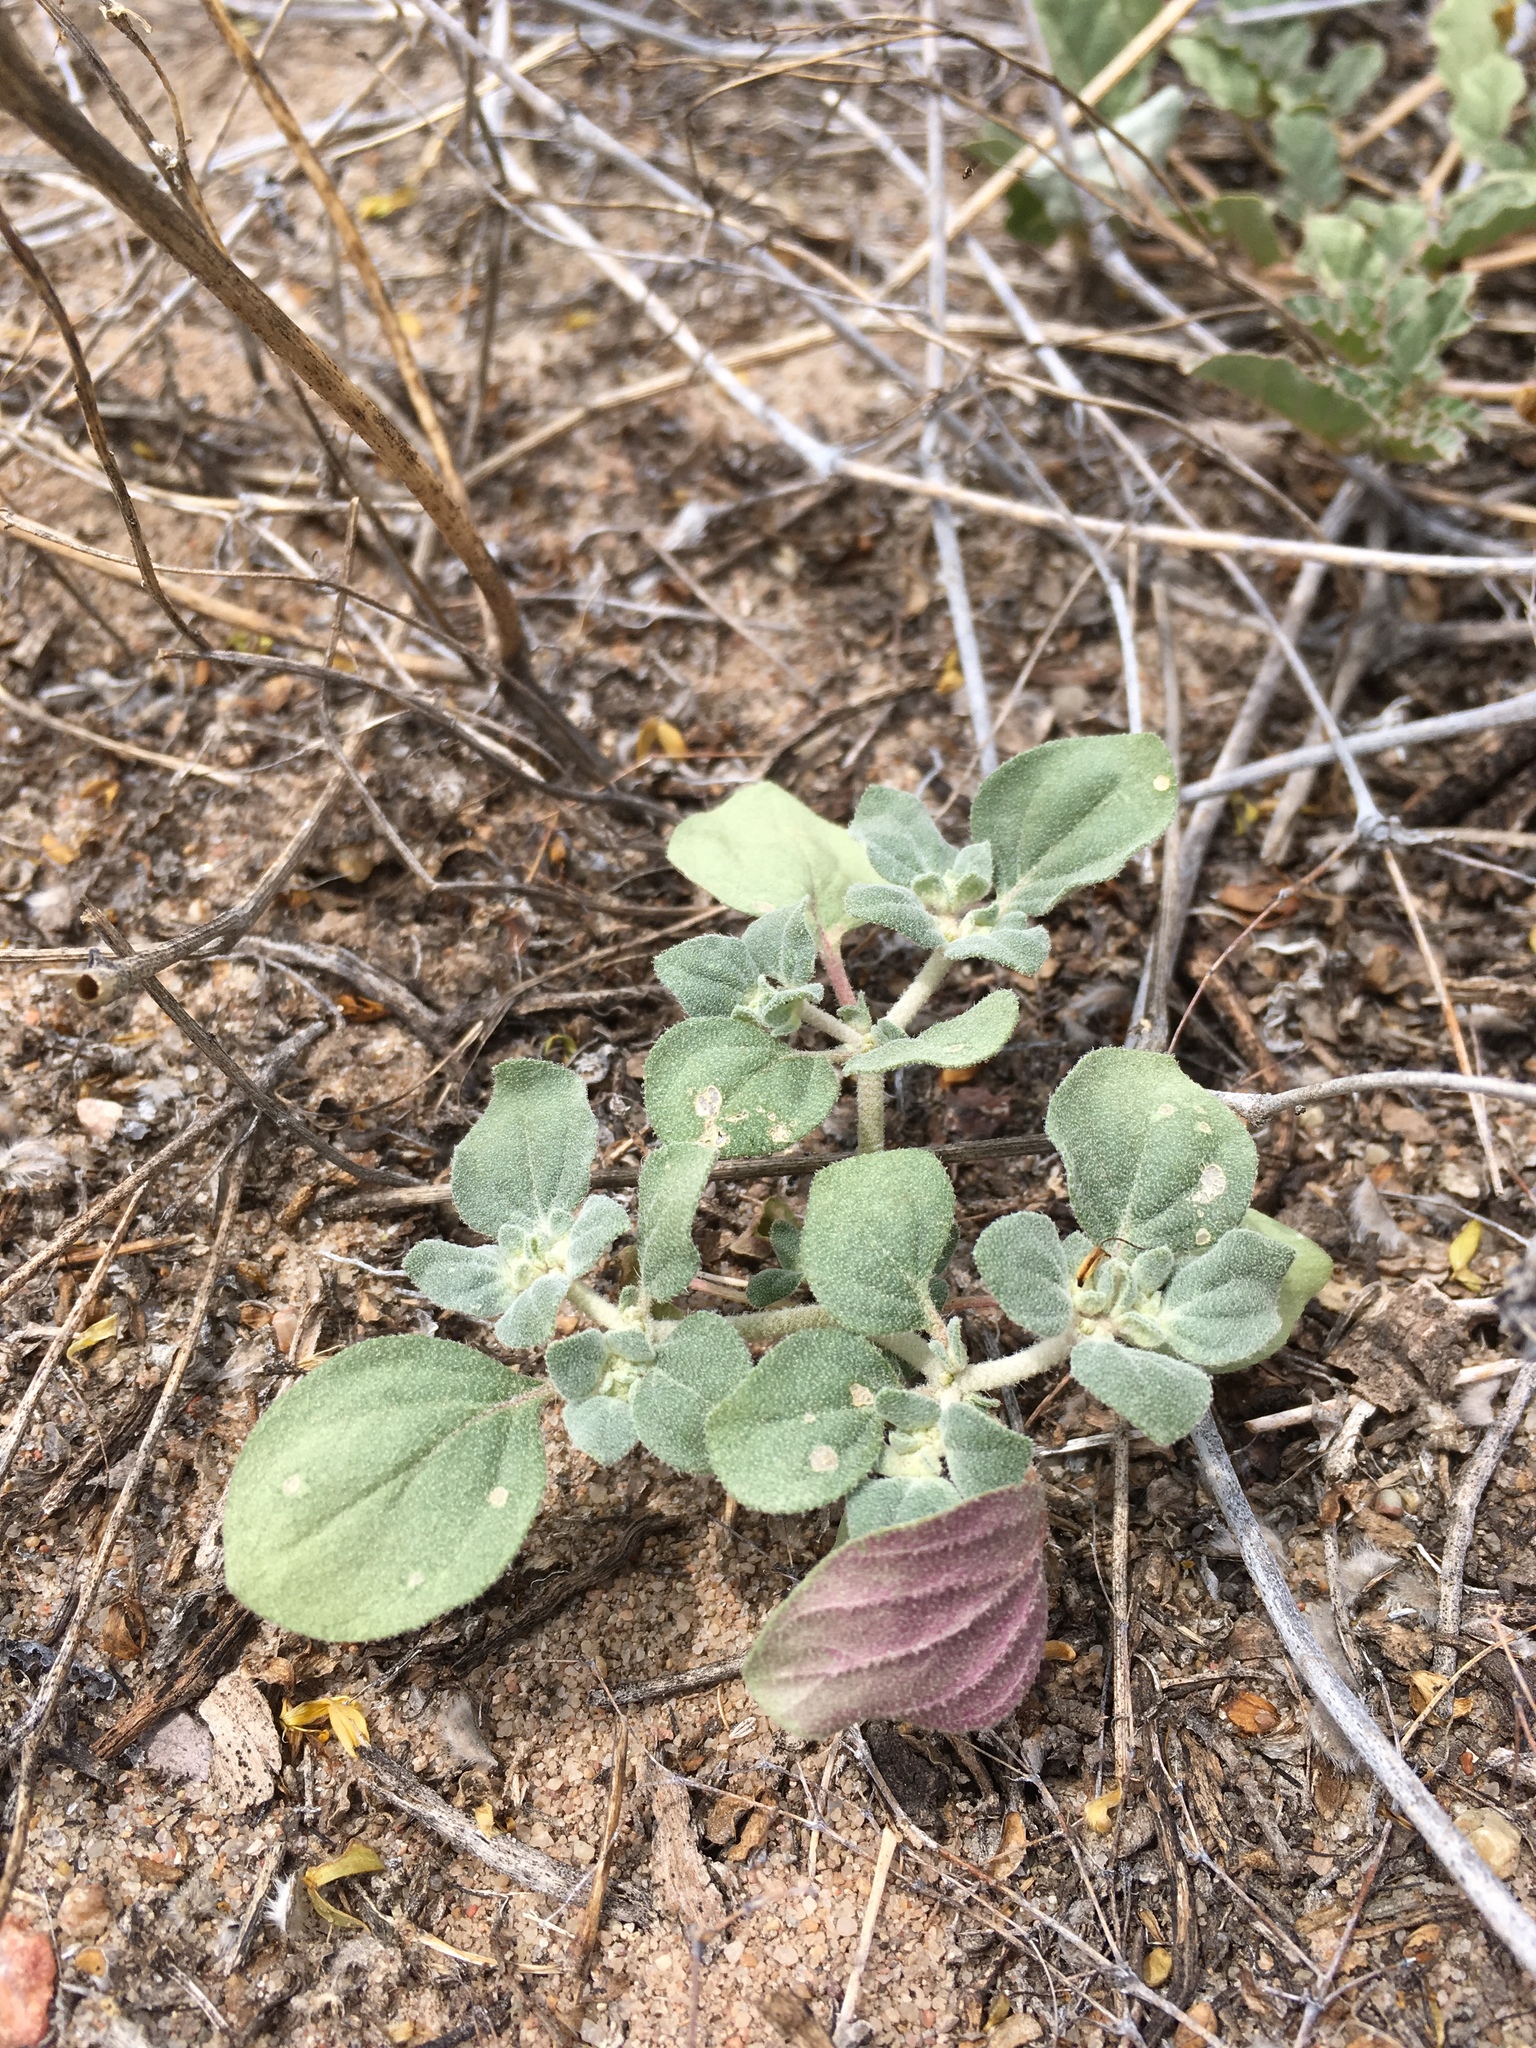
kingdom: Plantae
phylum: Tracheophyta
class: Magnoliopsida
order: Caryophyllales
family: Amaranthaceae
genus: Tidestromia
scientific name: Tidestromia lanuginosa
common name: Woolly tidestromia
